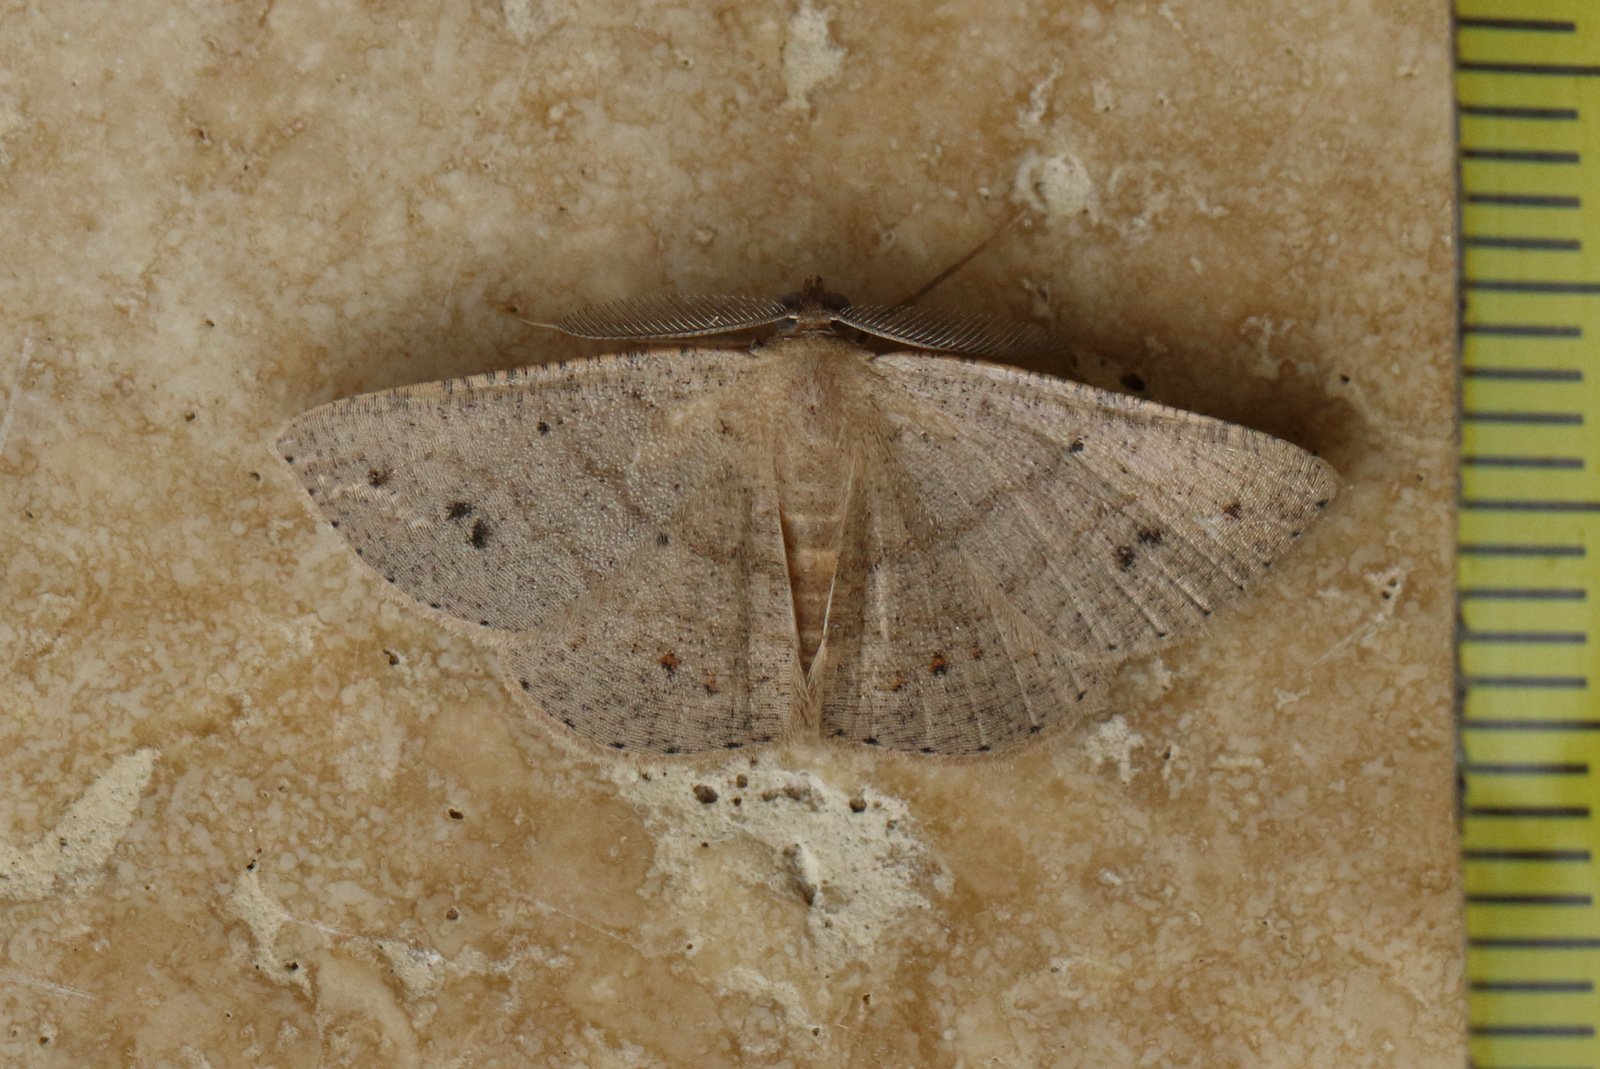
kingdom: Animalia
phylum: Arthropoda
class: Insecta
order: Lepidoptera
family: Geometridae
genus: Casbia
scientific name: Casbia rectaria
